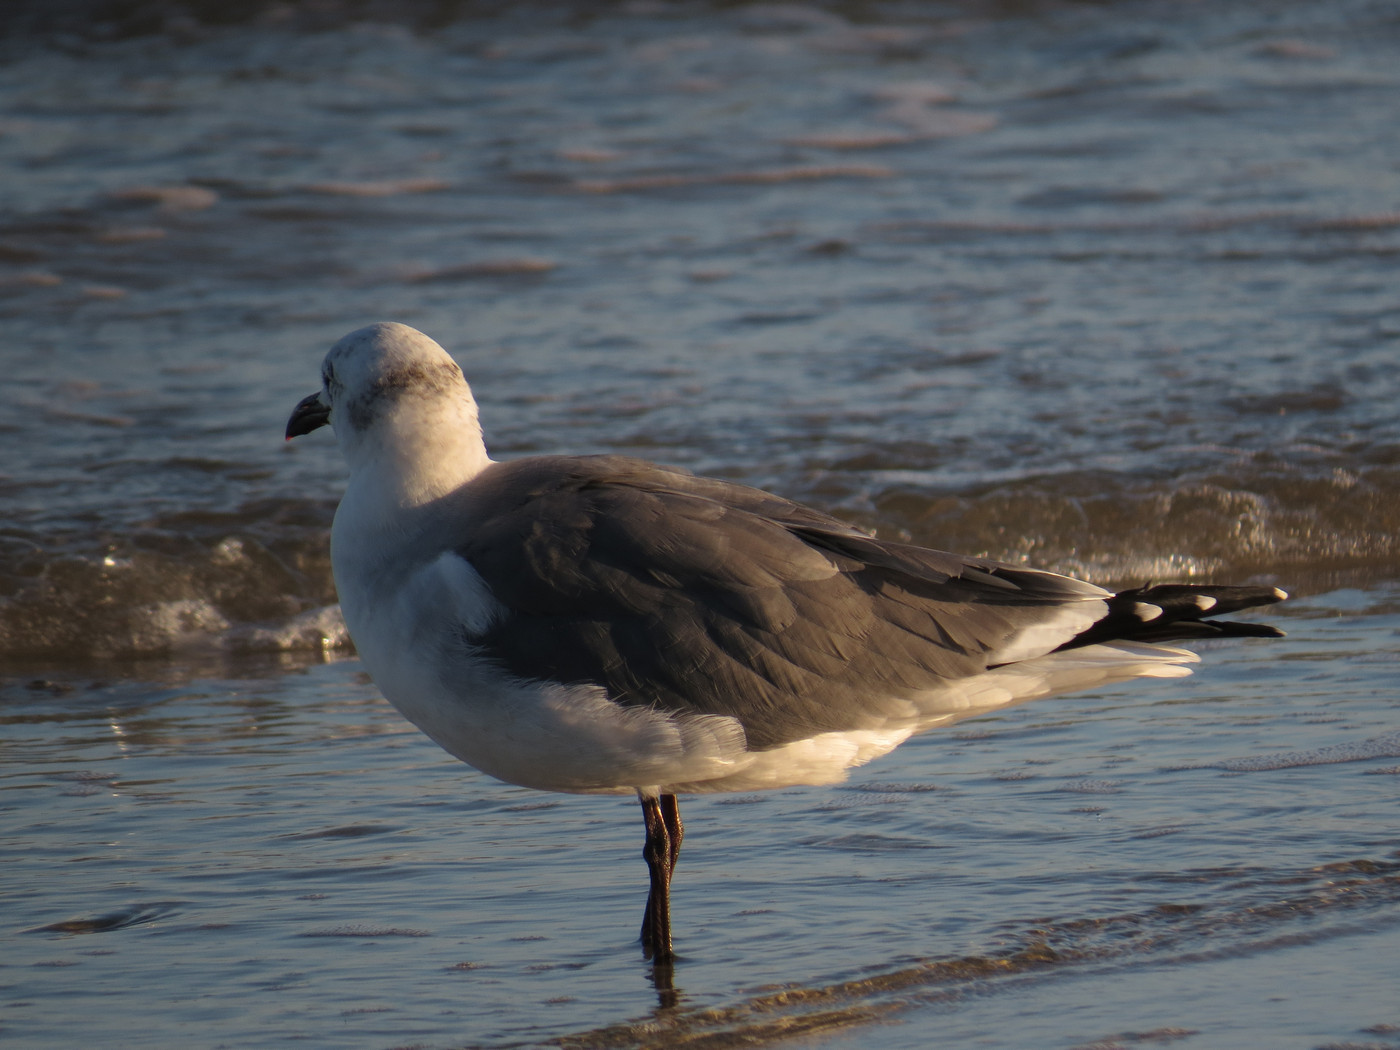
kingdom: Animalia
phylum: Chordata
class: Aves
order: Charadriiformes
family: Laridae
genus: Leucophaeus
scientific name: Leucophaeus atricilla
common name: Laughing gull
